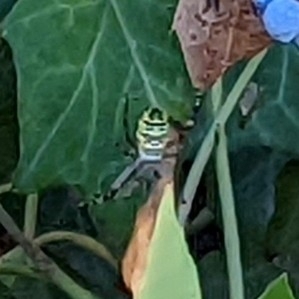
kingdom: Animalia
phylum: Arthropoda
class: Arachnida
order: Araneae
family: Araneidae
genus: Argiope
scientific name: Argiope bruennichi
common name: Wasp spider
